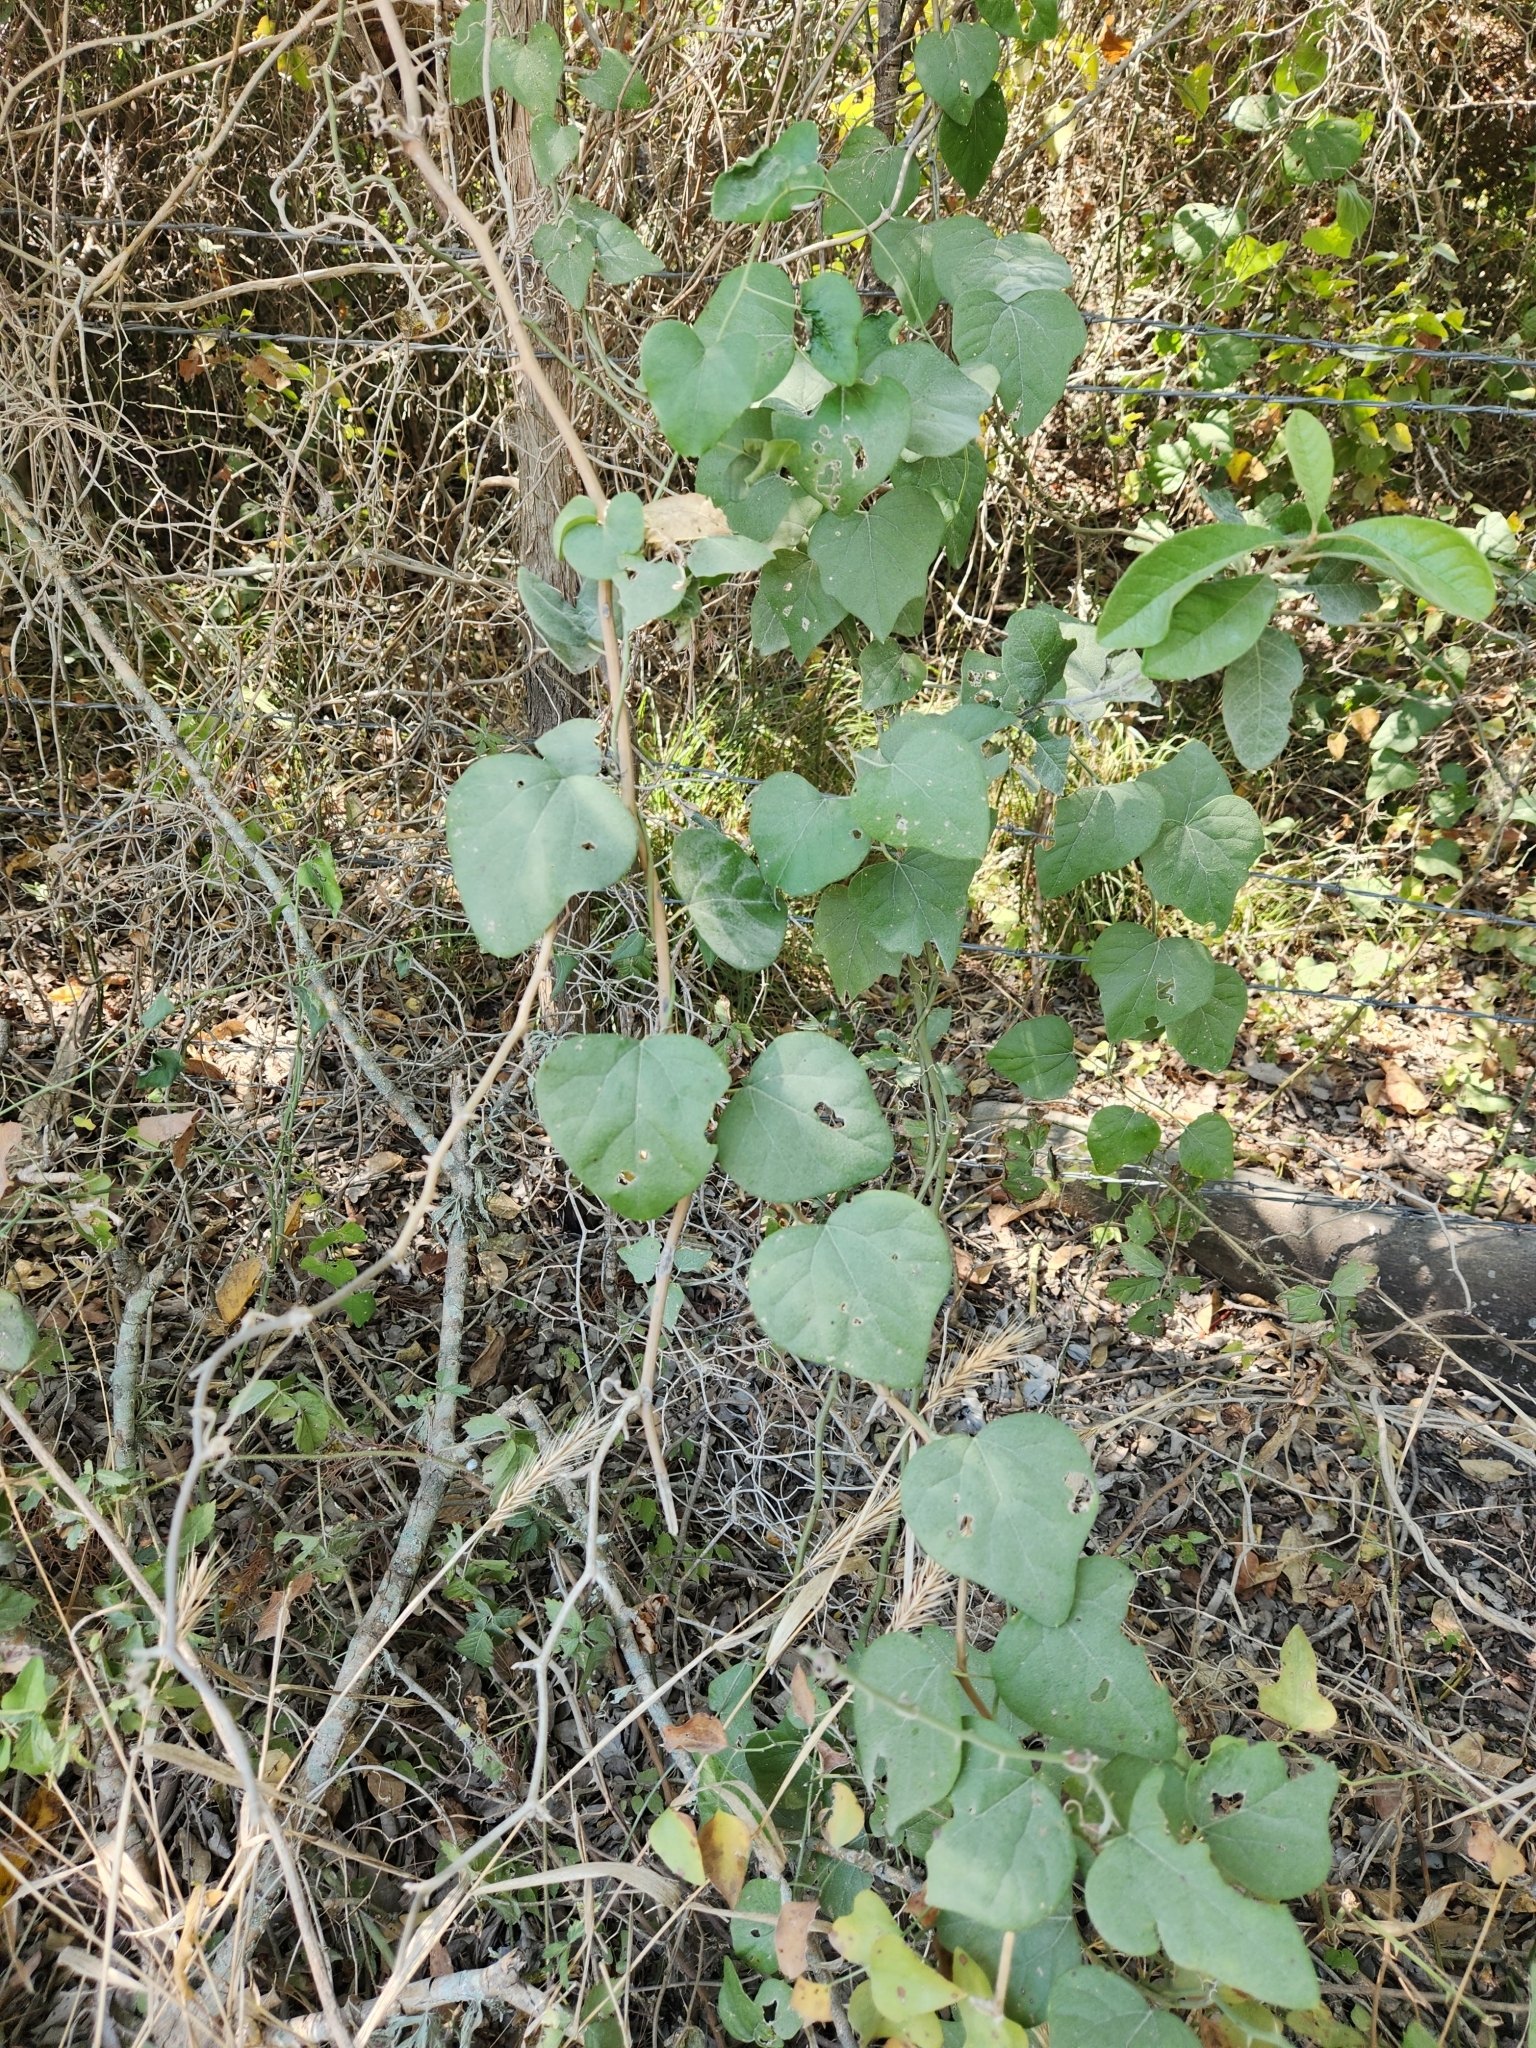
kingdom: Plantae
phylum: Tracheophyta
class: Magnoliopsida
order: Ranunculales
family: Menispermaceae
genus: Cocculus
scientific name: Cocculus carolinus
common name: Carolina moonseed
